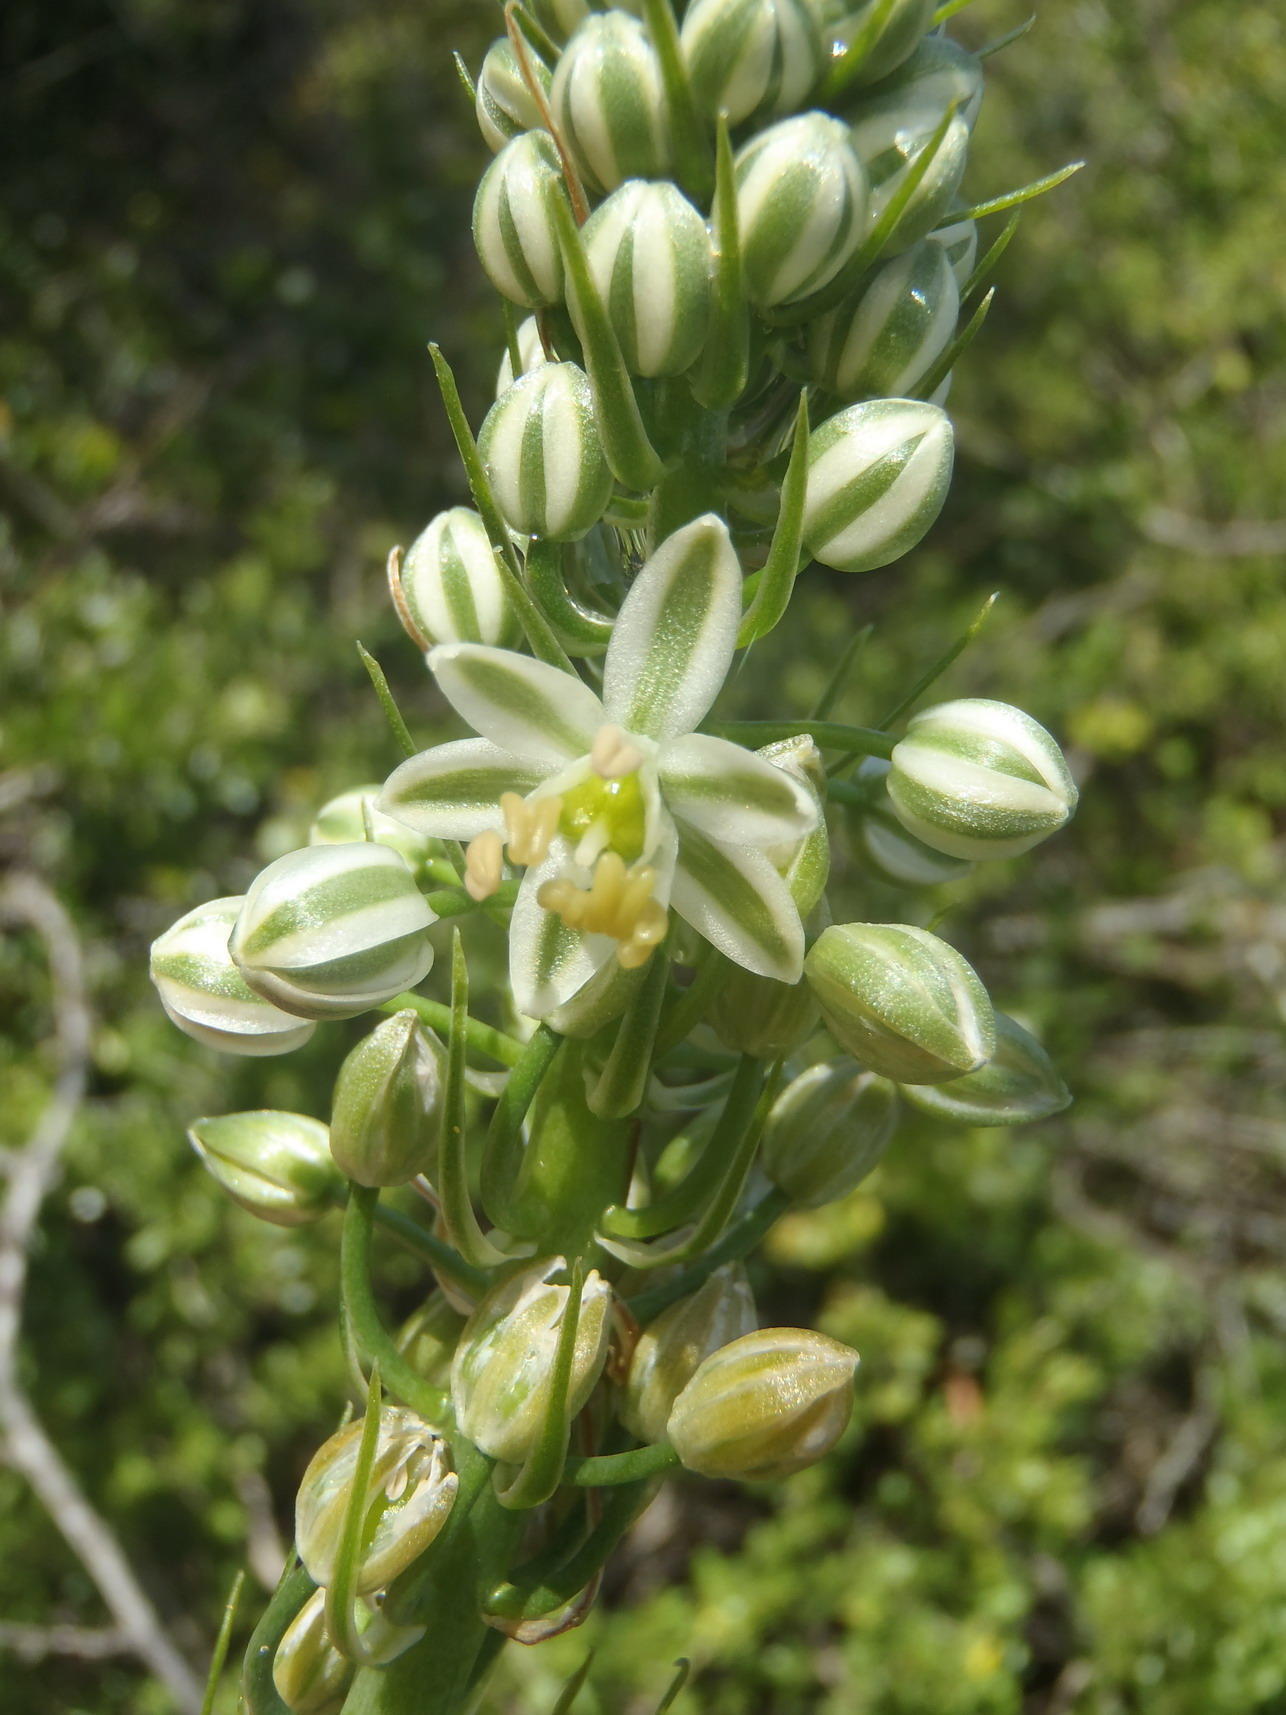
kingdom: Plantae
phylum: Tracheophyta
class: Liliopsida
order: Asparagales
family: Asparagaceae
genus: Albuca
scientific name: Albuca bracteata
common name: Sea-onion
